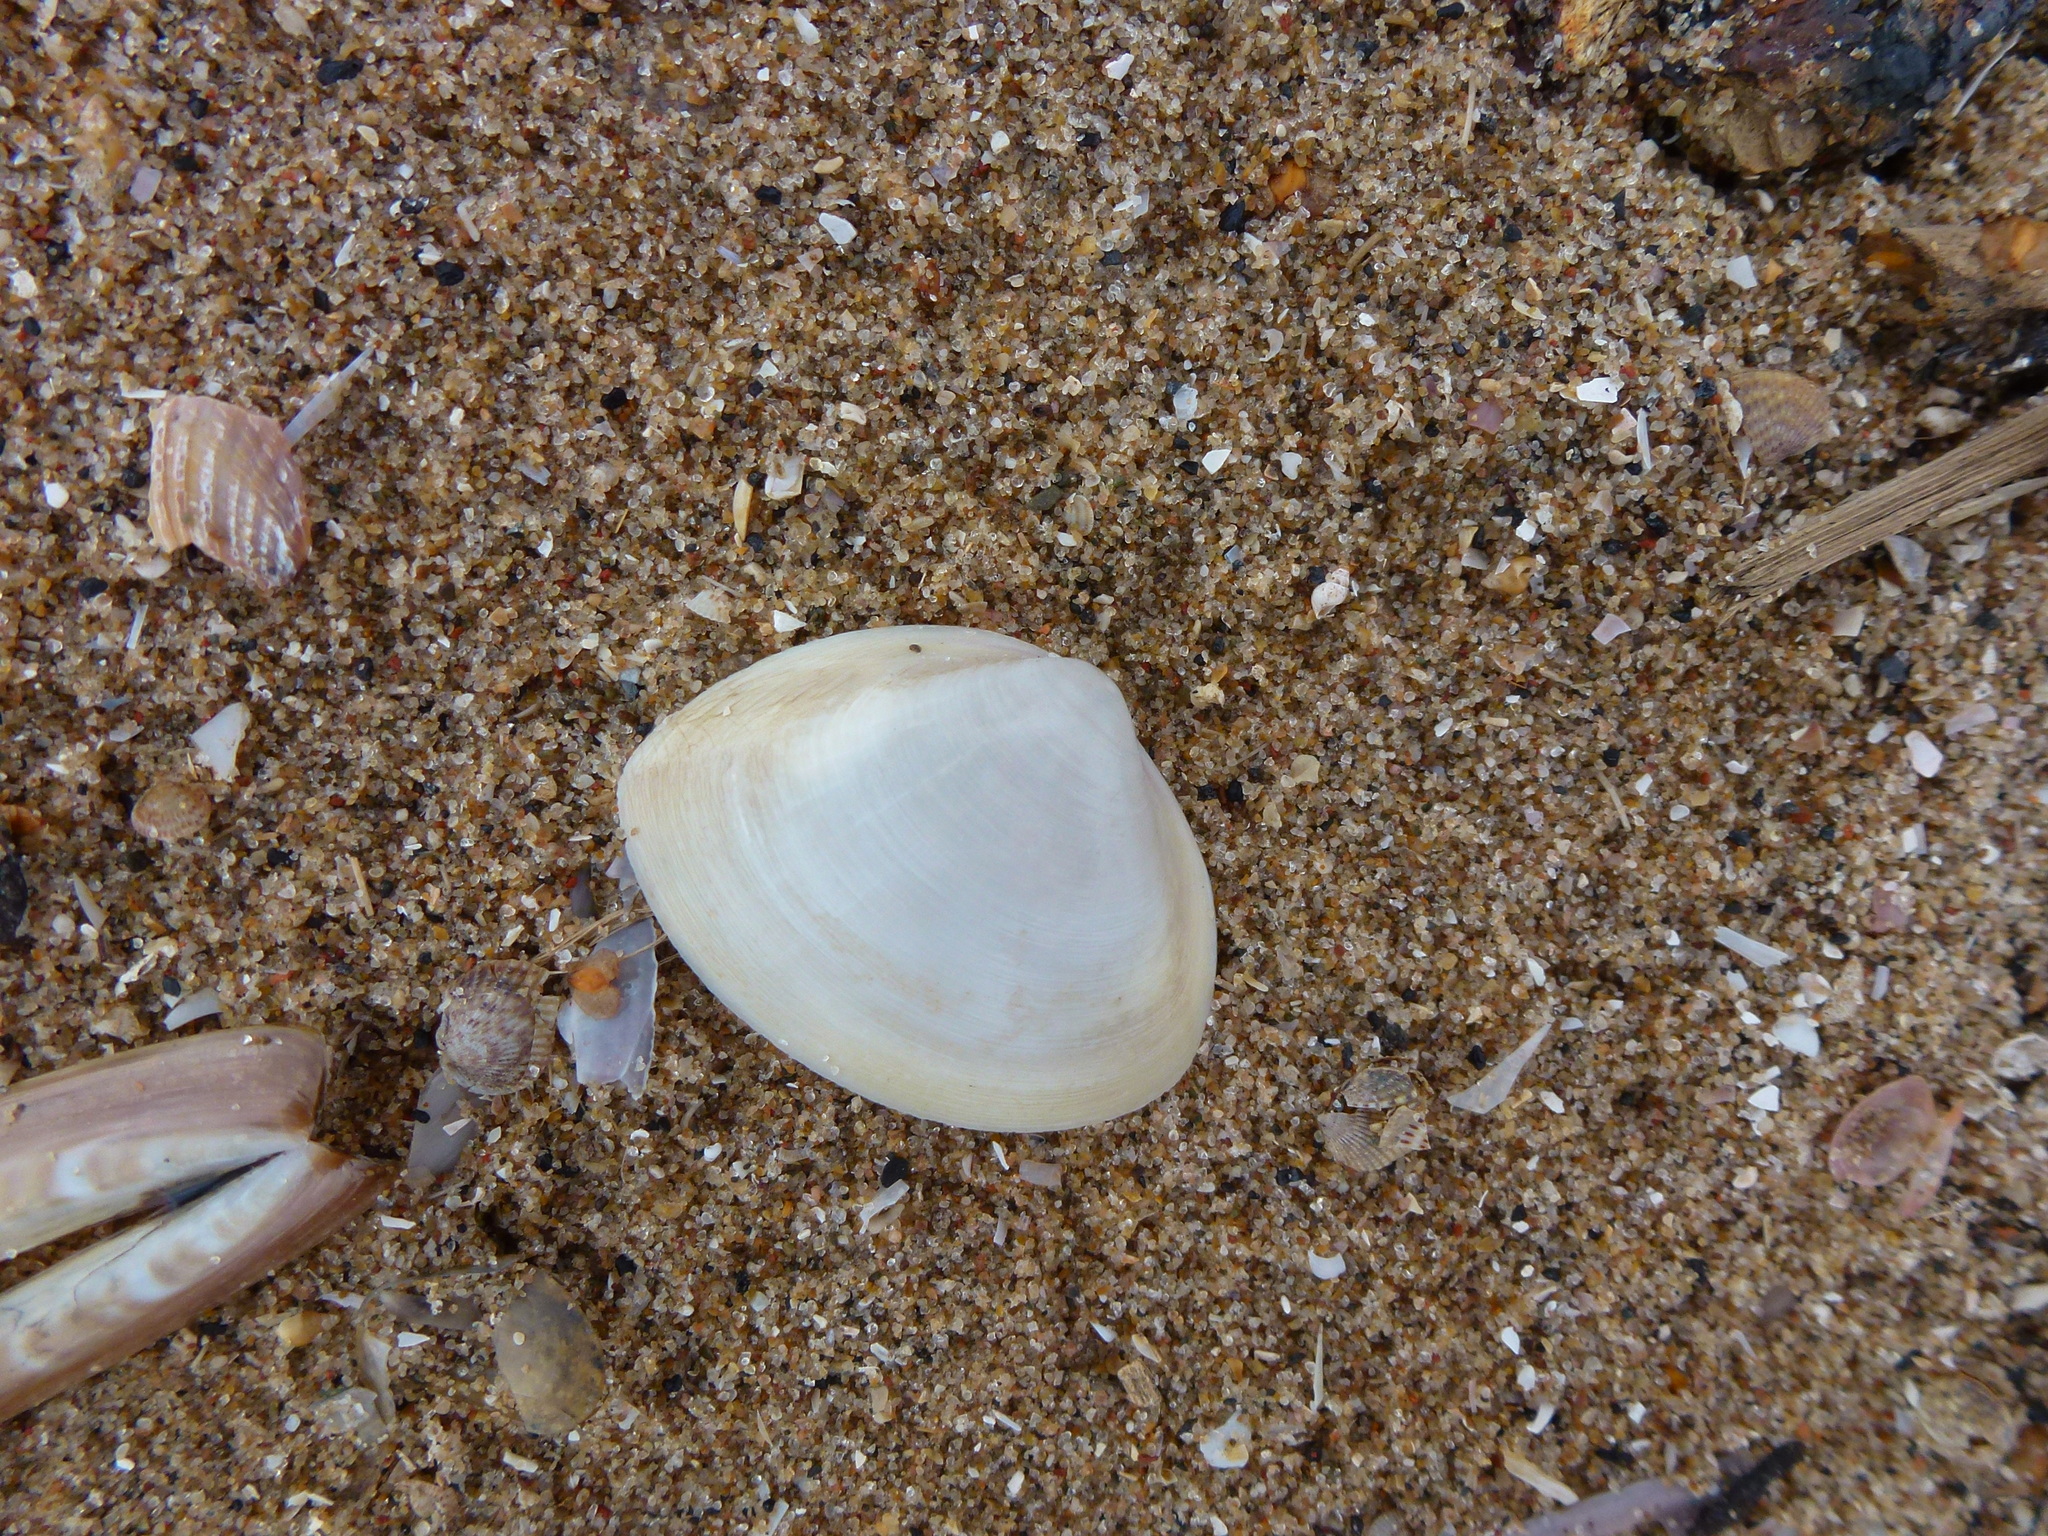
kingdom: Animalia
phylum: Mollusca
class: Bivalvia
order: Venerida
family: Mactridae
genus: Spisula
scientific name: Spisula subtruncata
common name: Cut trough shell
